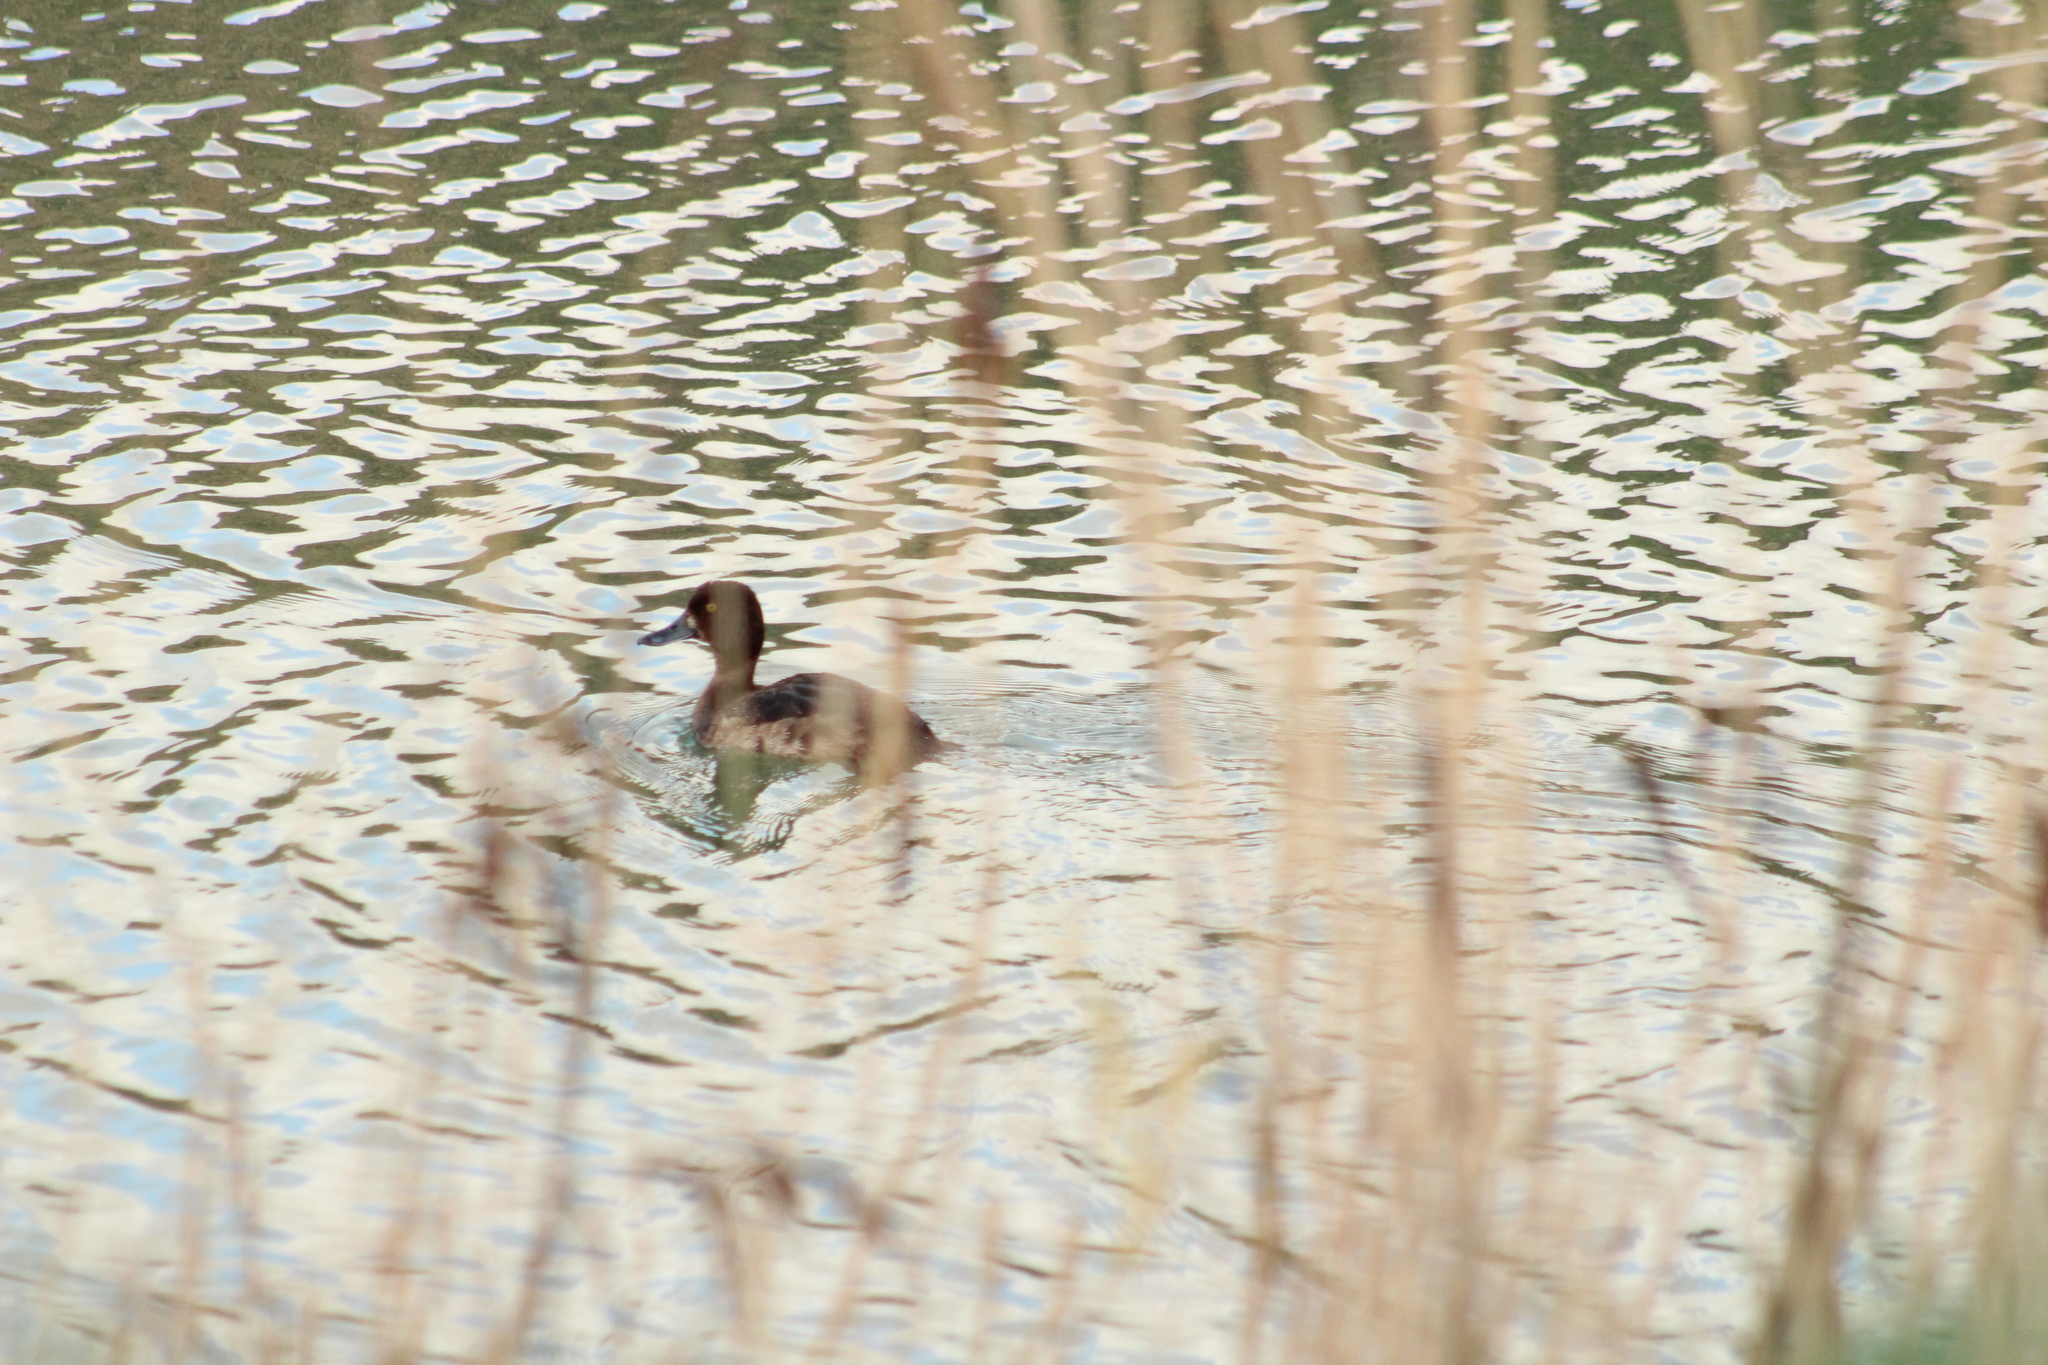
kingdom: Animalia
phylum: Chordata
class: Aves
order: Anseriformes
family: Anatidae
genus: Aythya
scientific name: Aythya fuligula
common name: Tufted duck
